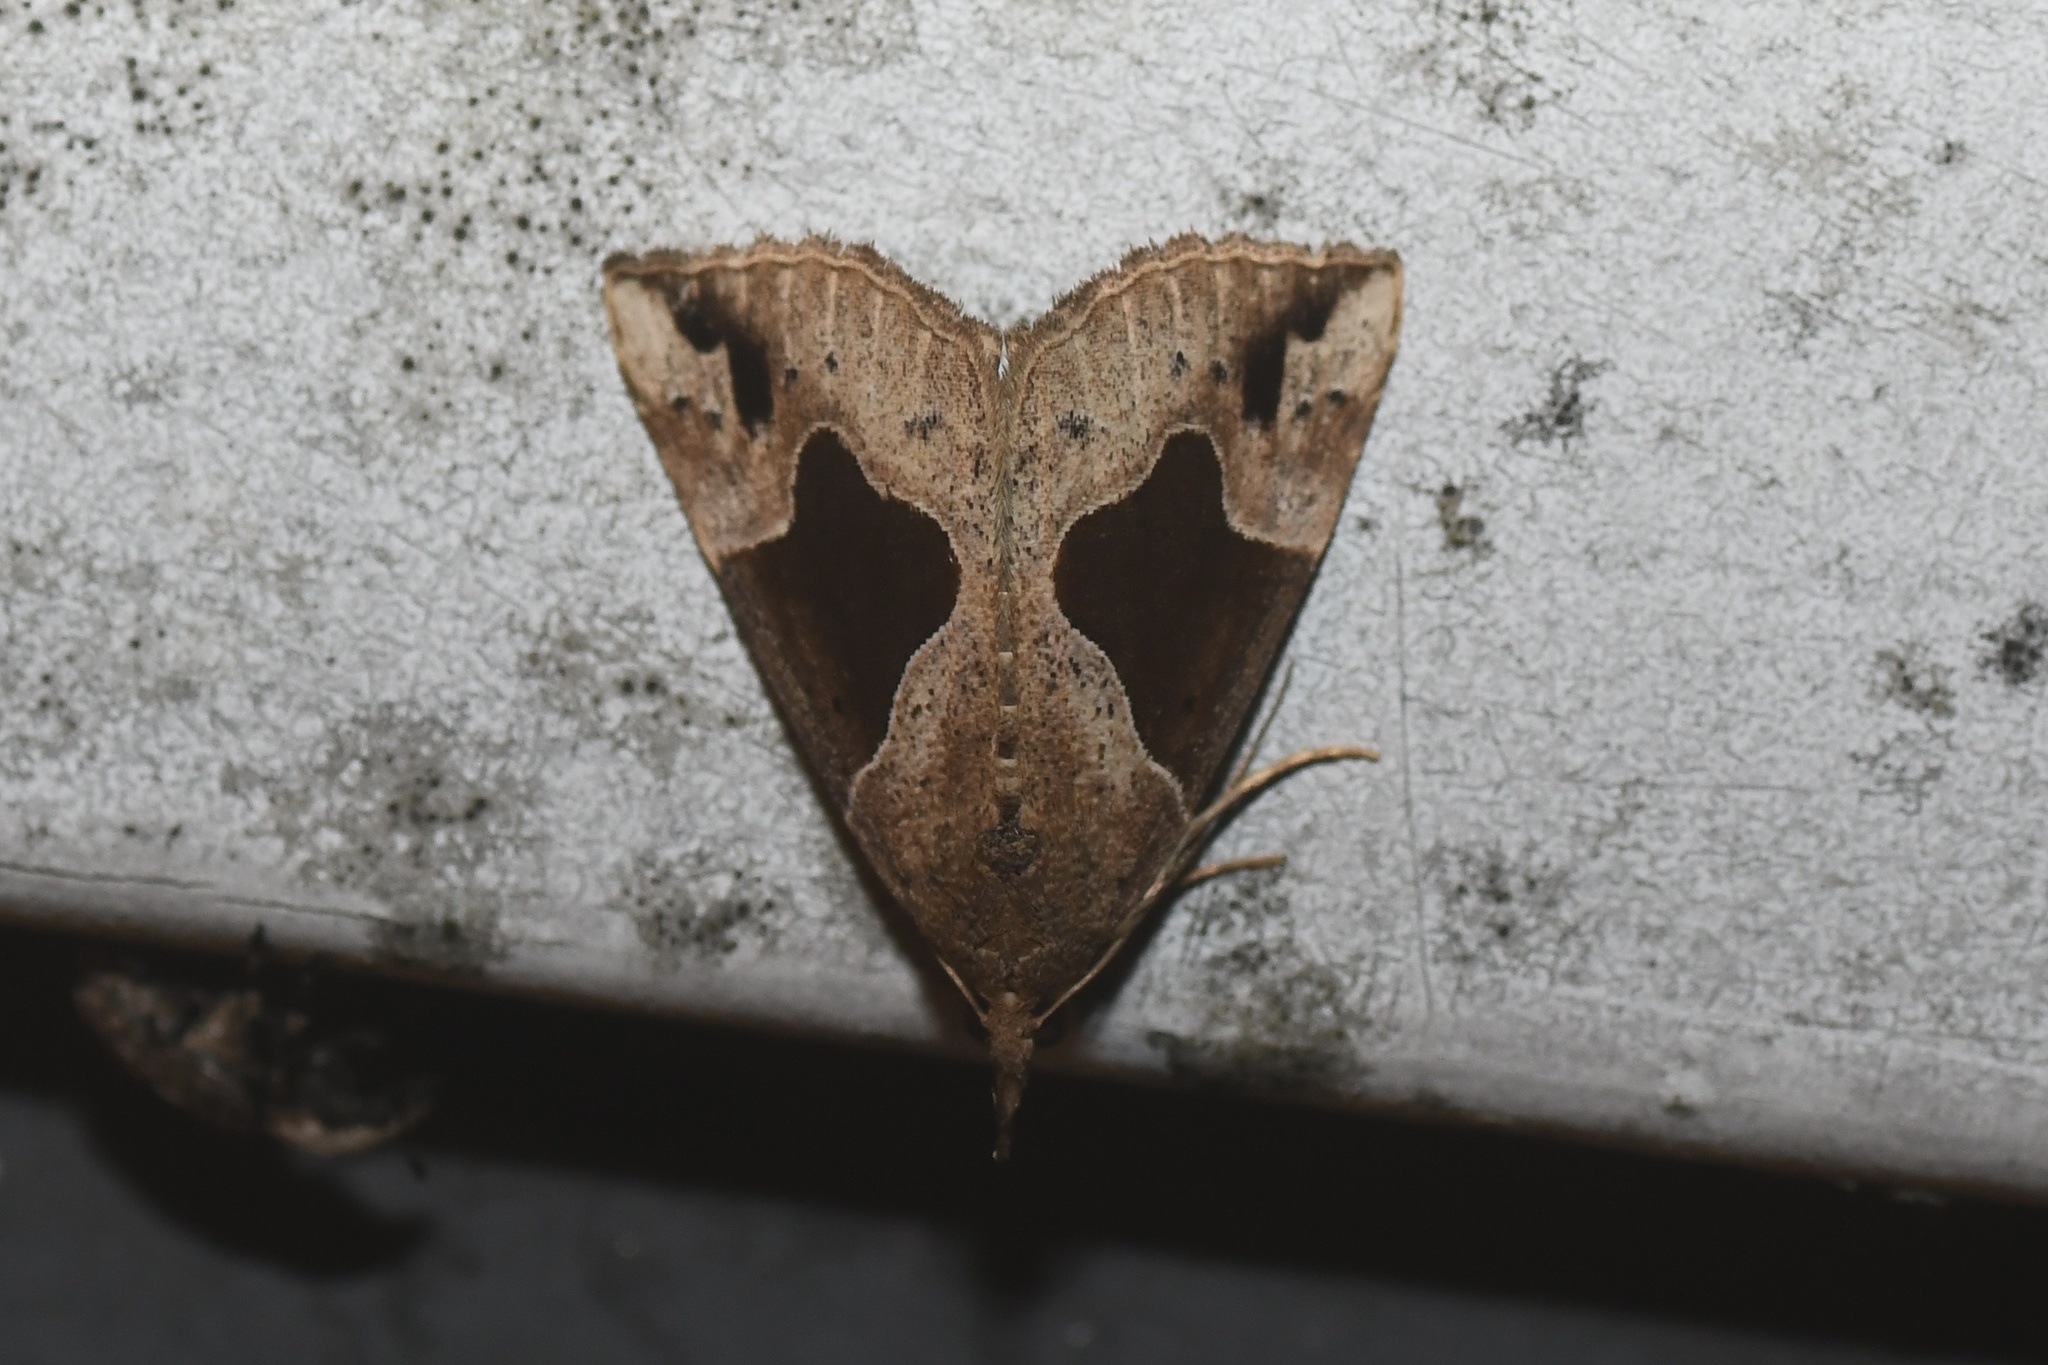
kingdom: Animalia
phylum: Arthropoda
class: Insecta
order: Lepidoptera
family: Erebidae
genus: Hypena
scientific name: Hypena manalis
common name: Flowing-line bomolocha moth
